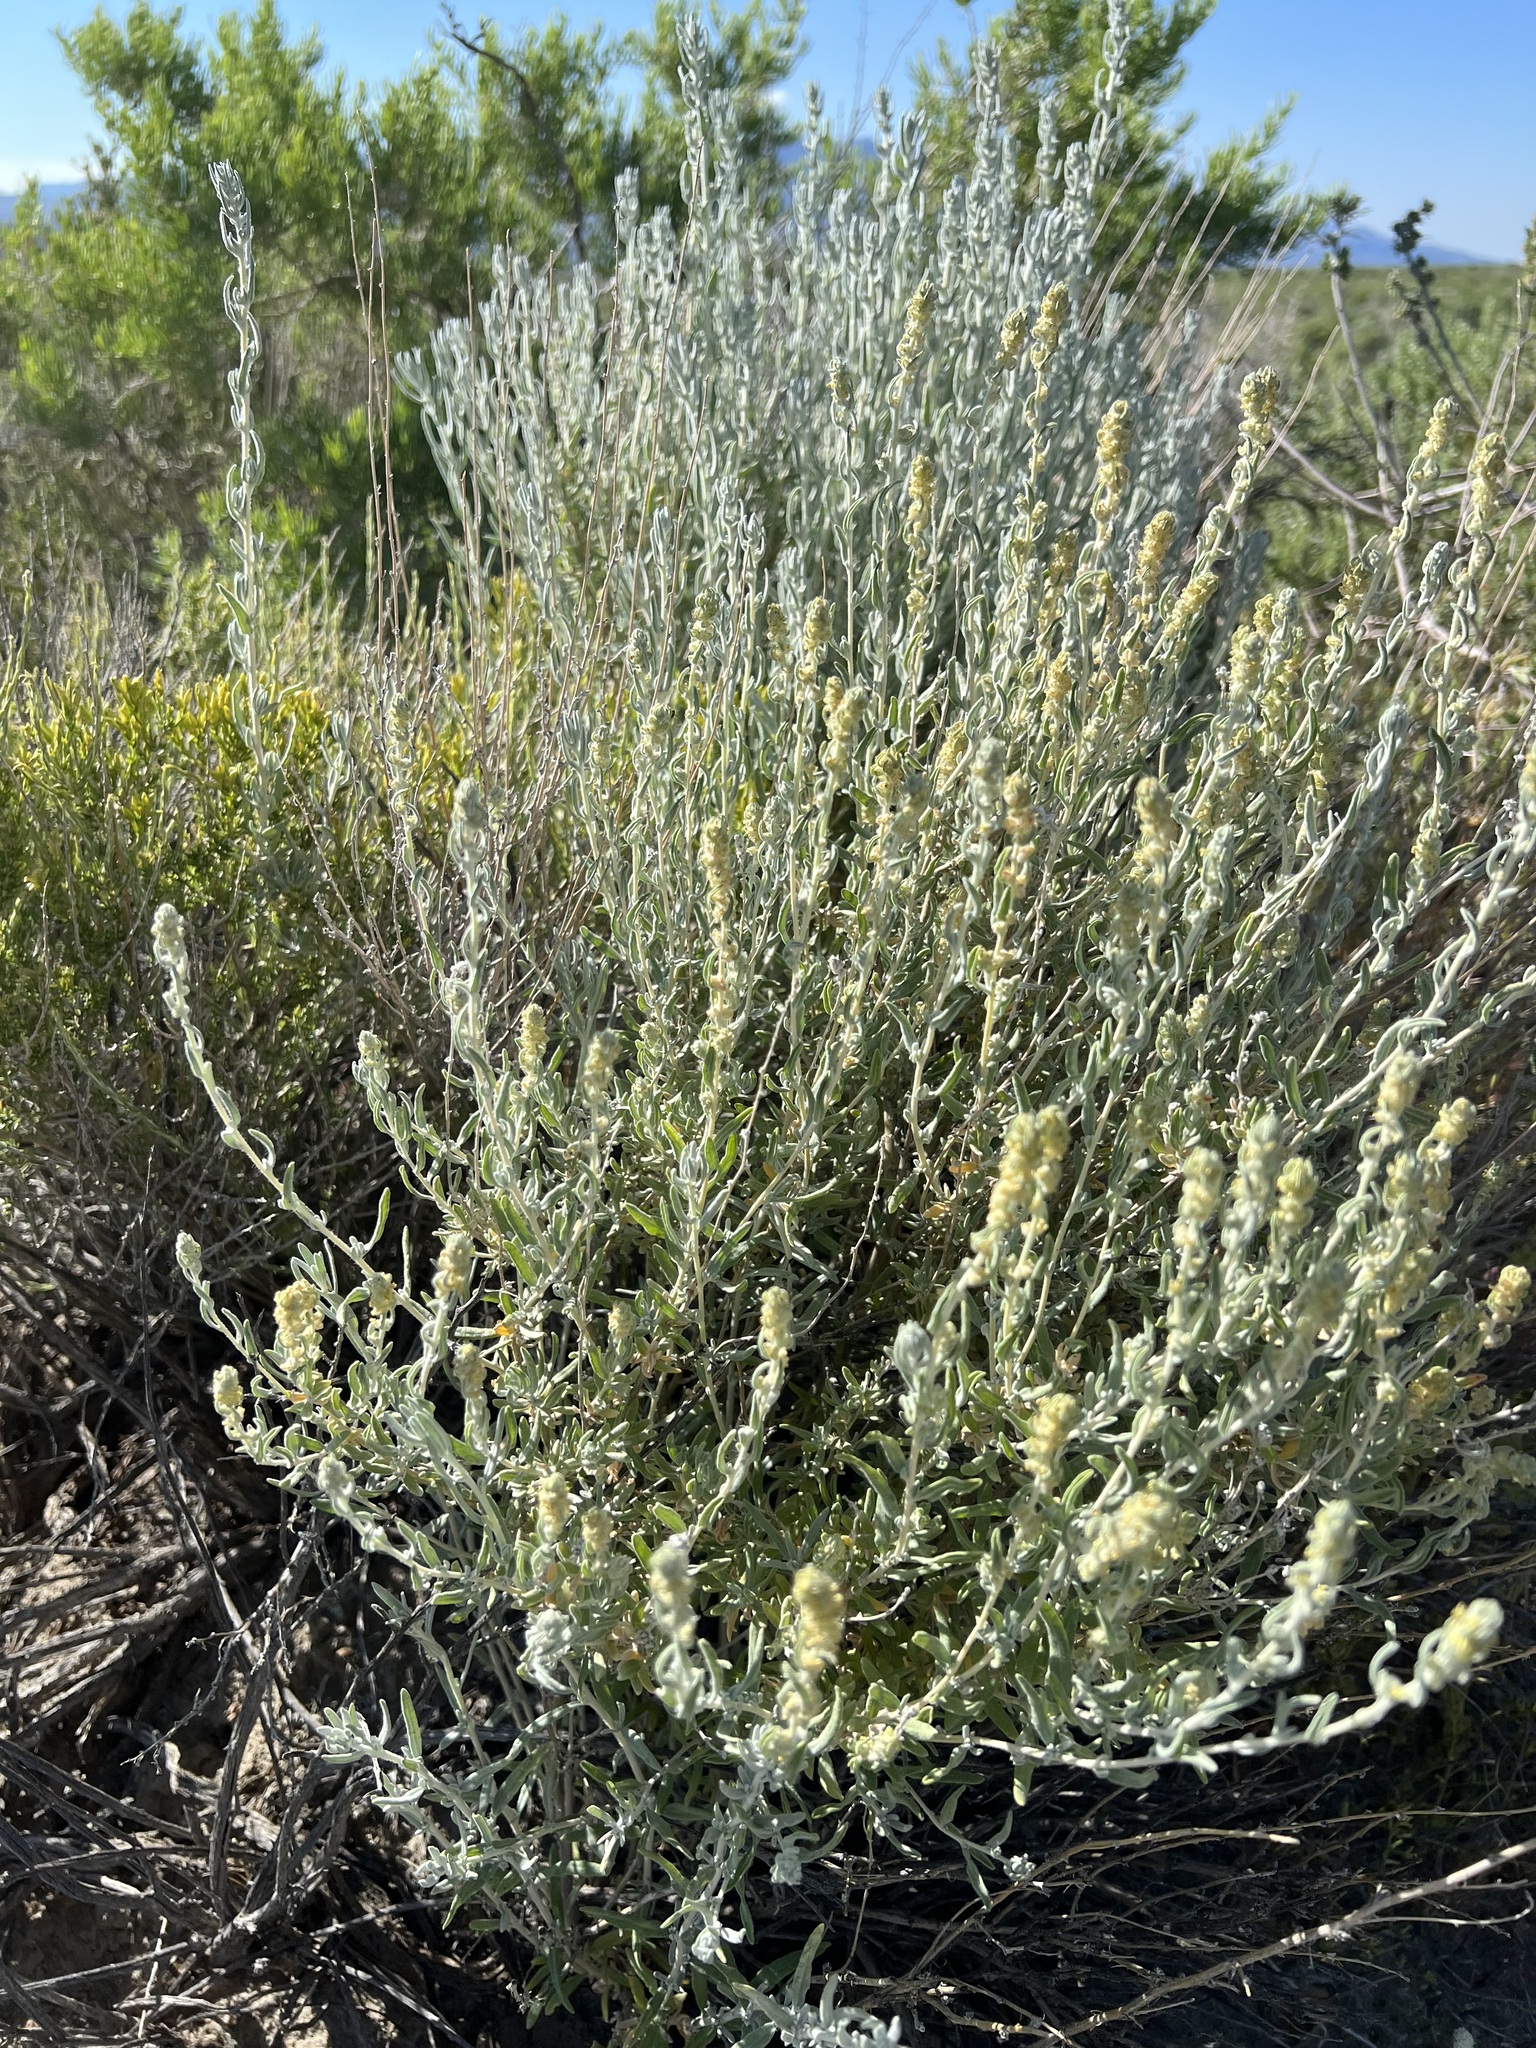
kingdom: Plantae
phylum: Tracheophyta
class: Magnoliopsida
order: Caryophyllales
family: Amaranthaceae
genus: Krascheninnikovia
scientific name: Krascheninnikovia lanata
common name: Winterfat
